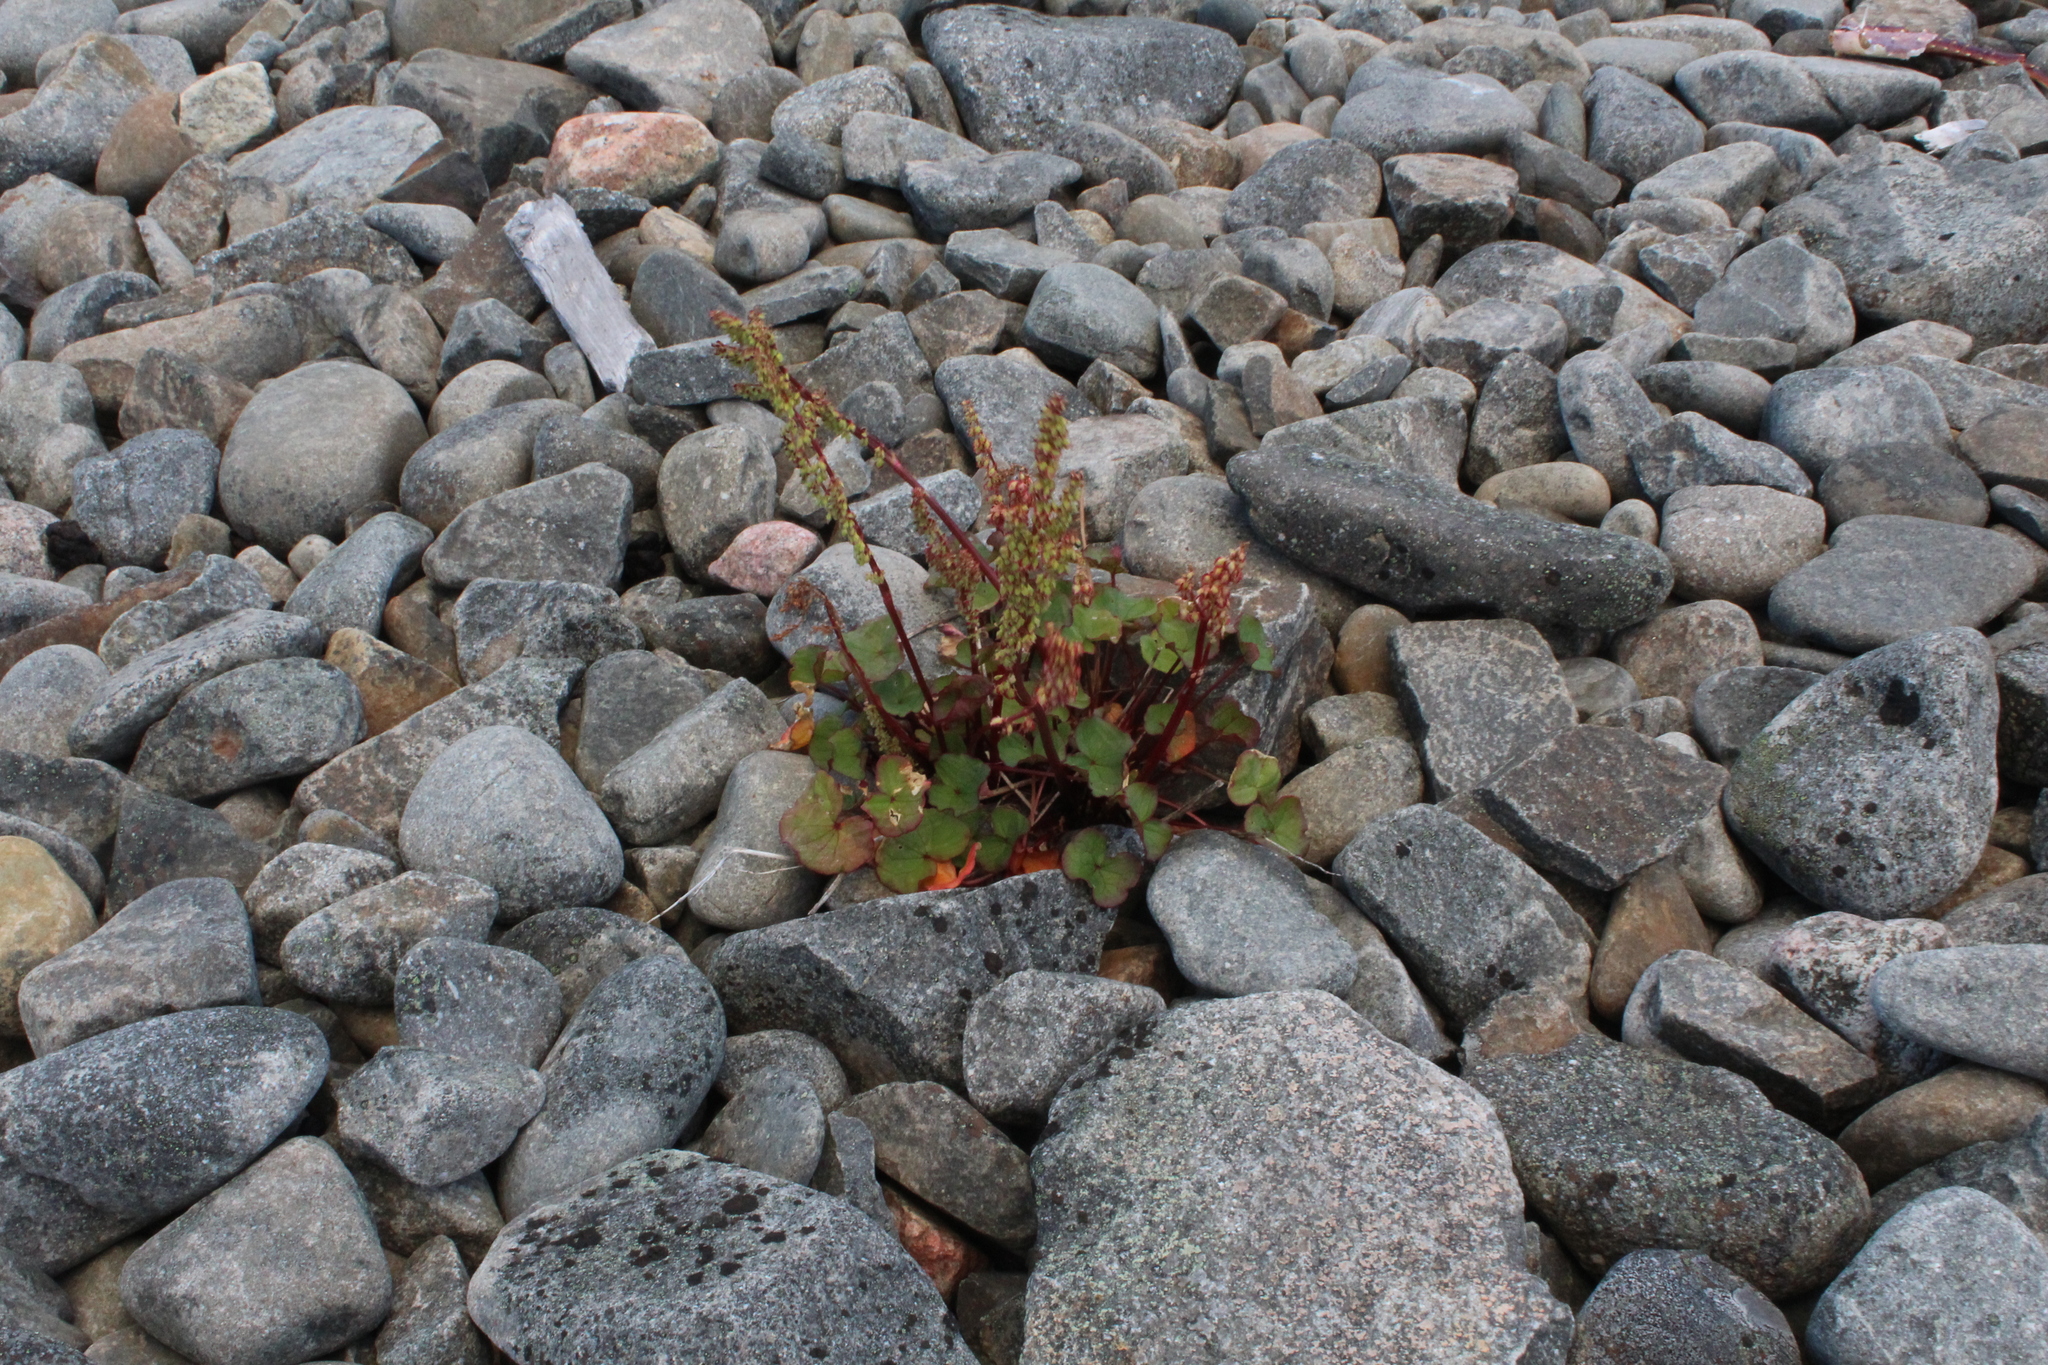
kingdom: Plantae
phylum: Tracheophyta
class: Magnoliopsida
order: Caryophyllales
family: Polygonaceae
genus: Oxyria
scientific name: Oxyria digyna
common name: Alpine mountain-sorrel
